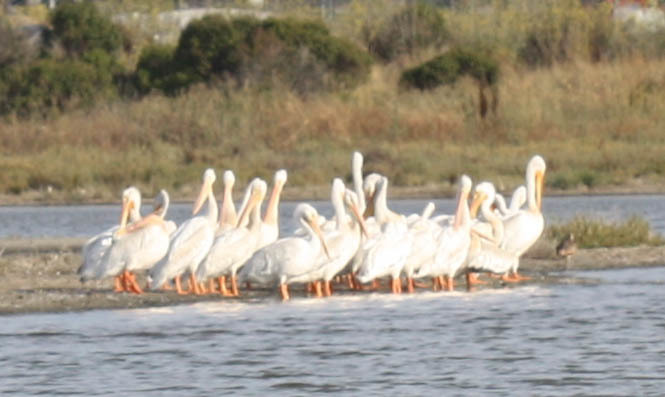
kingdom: Animalia
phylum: Chordata
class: Aves
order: Pelecaniformes
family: Pelecanidae
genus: Pelecanus
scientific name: Pelecanus erythrorhynchos
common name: American white pelican
